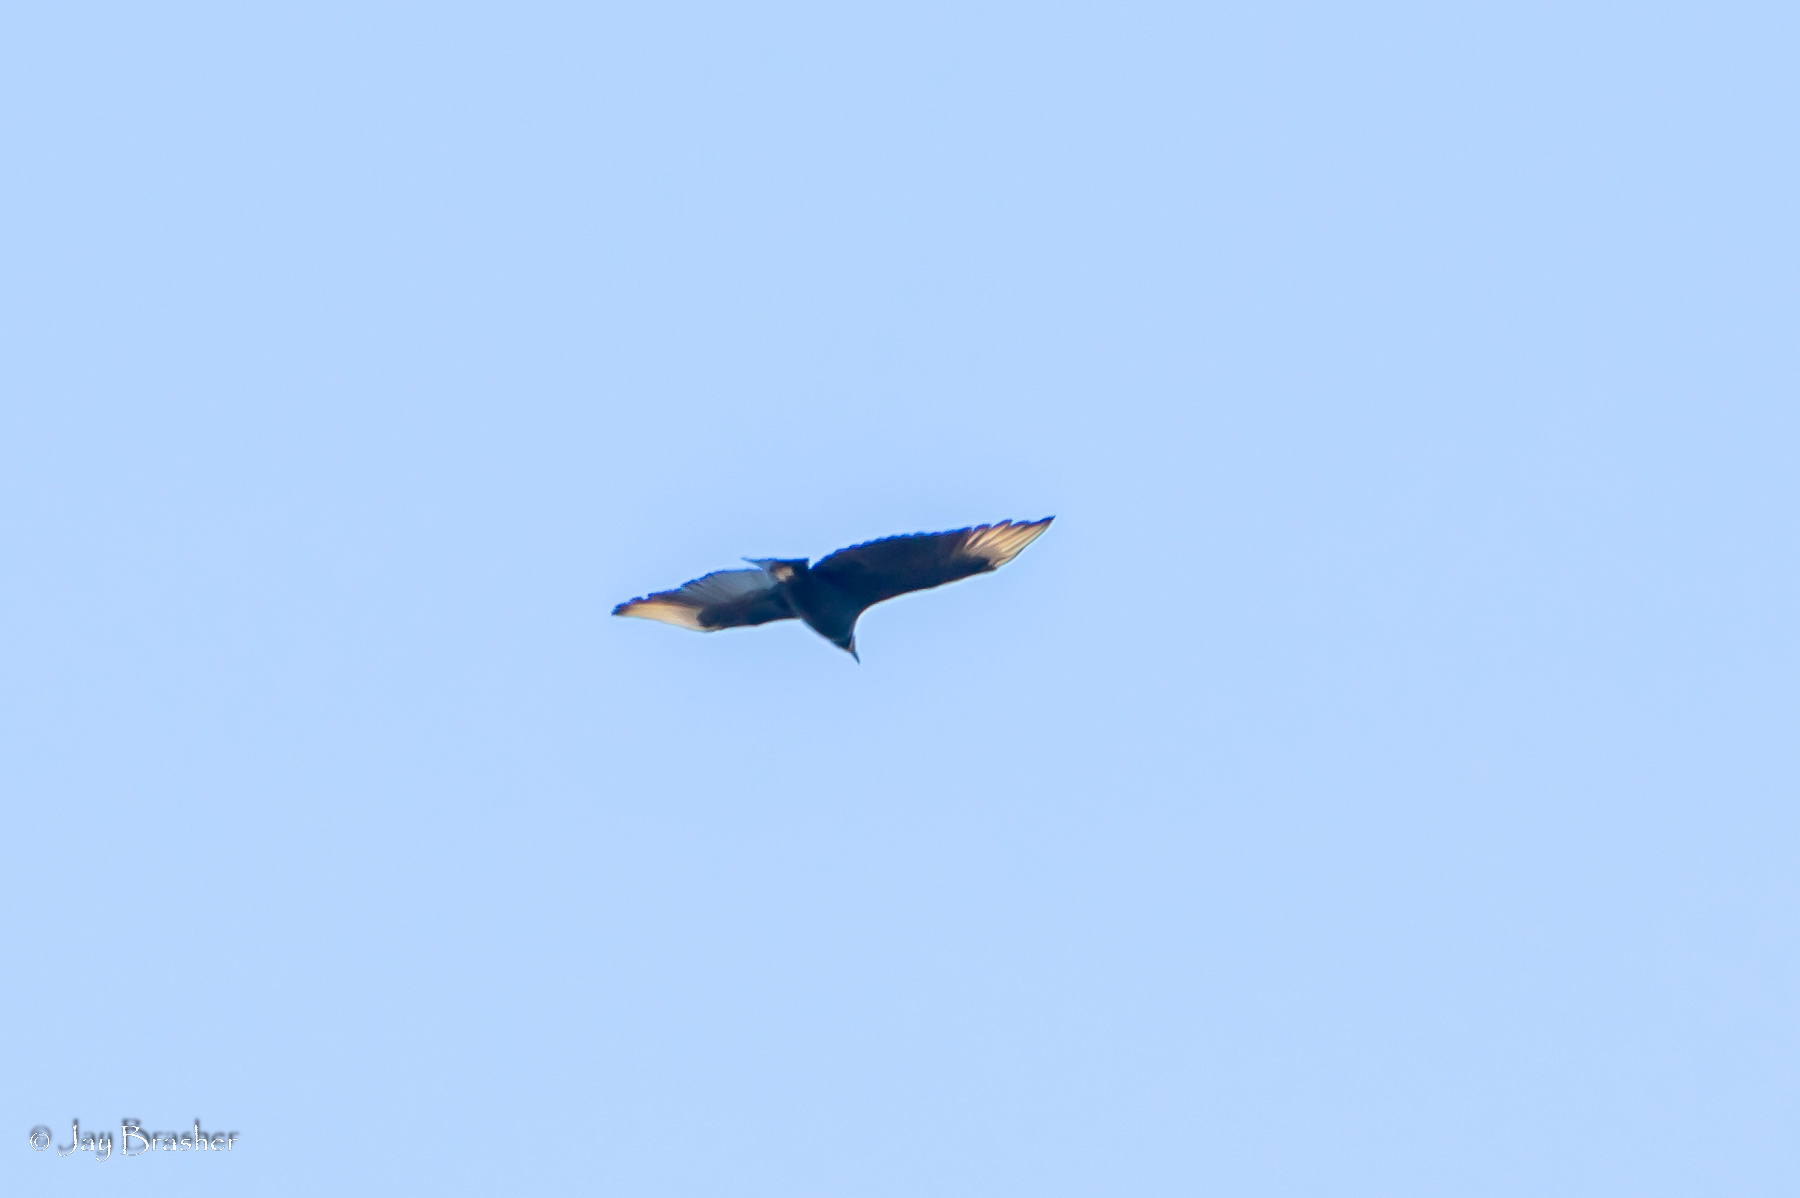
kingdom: Animalia
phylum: Chordata
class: Aves
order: Accipitriformes
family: Cathartidae
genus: Coragyps
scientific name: Coragyps atratus
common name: Black vulture
